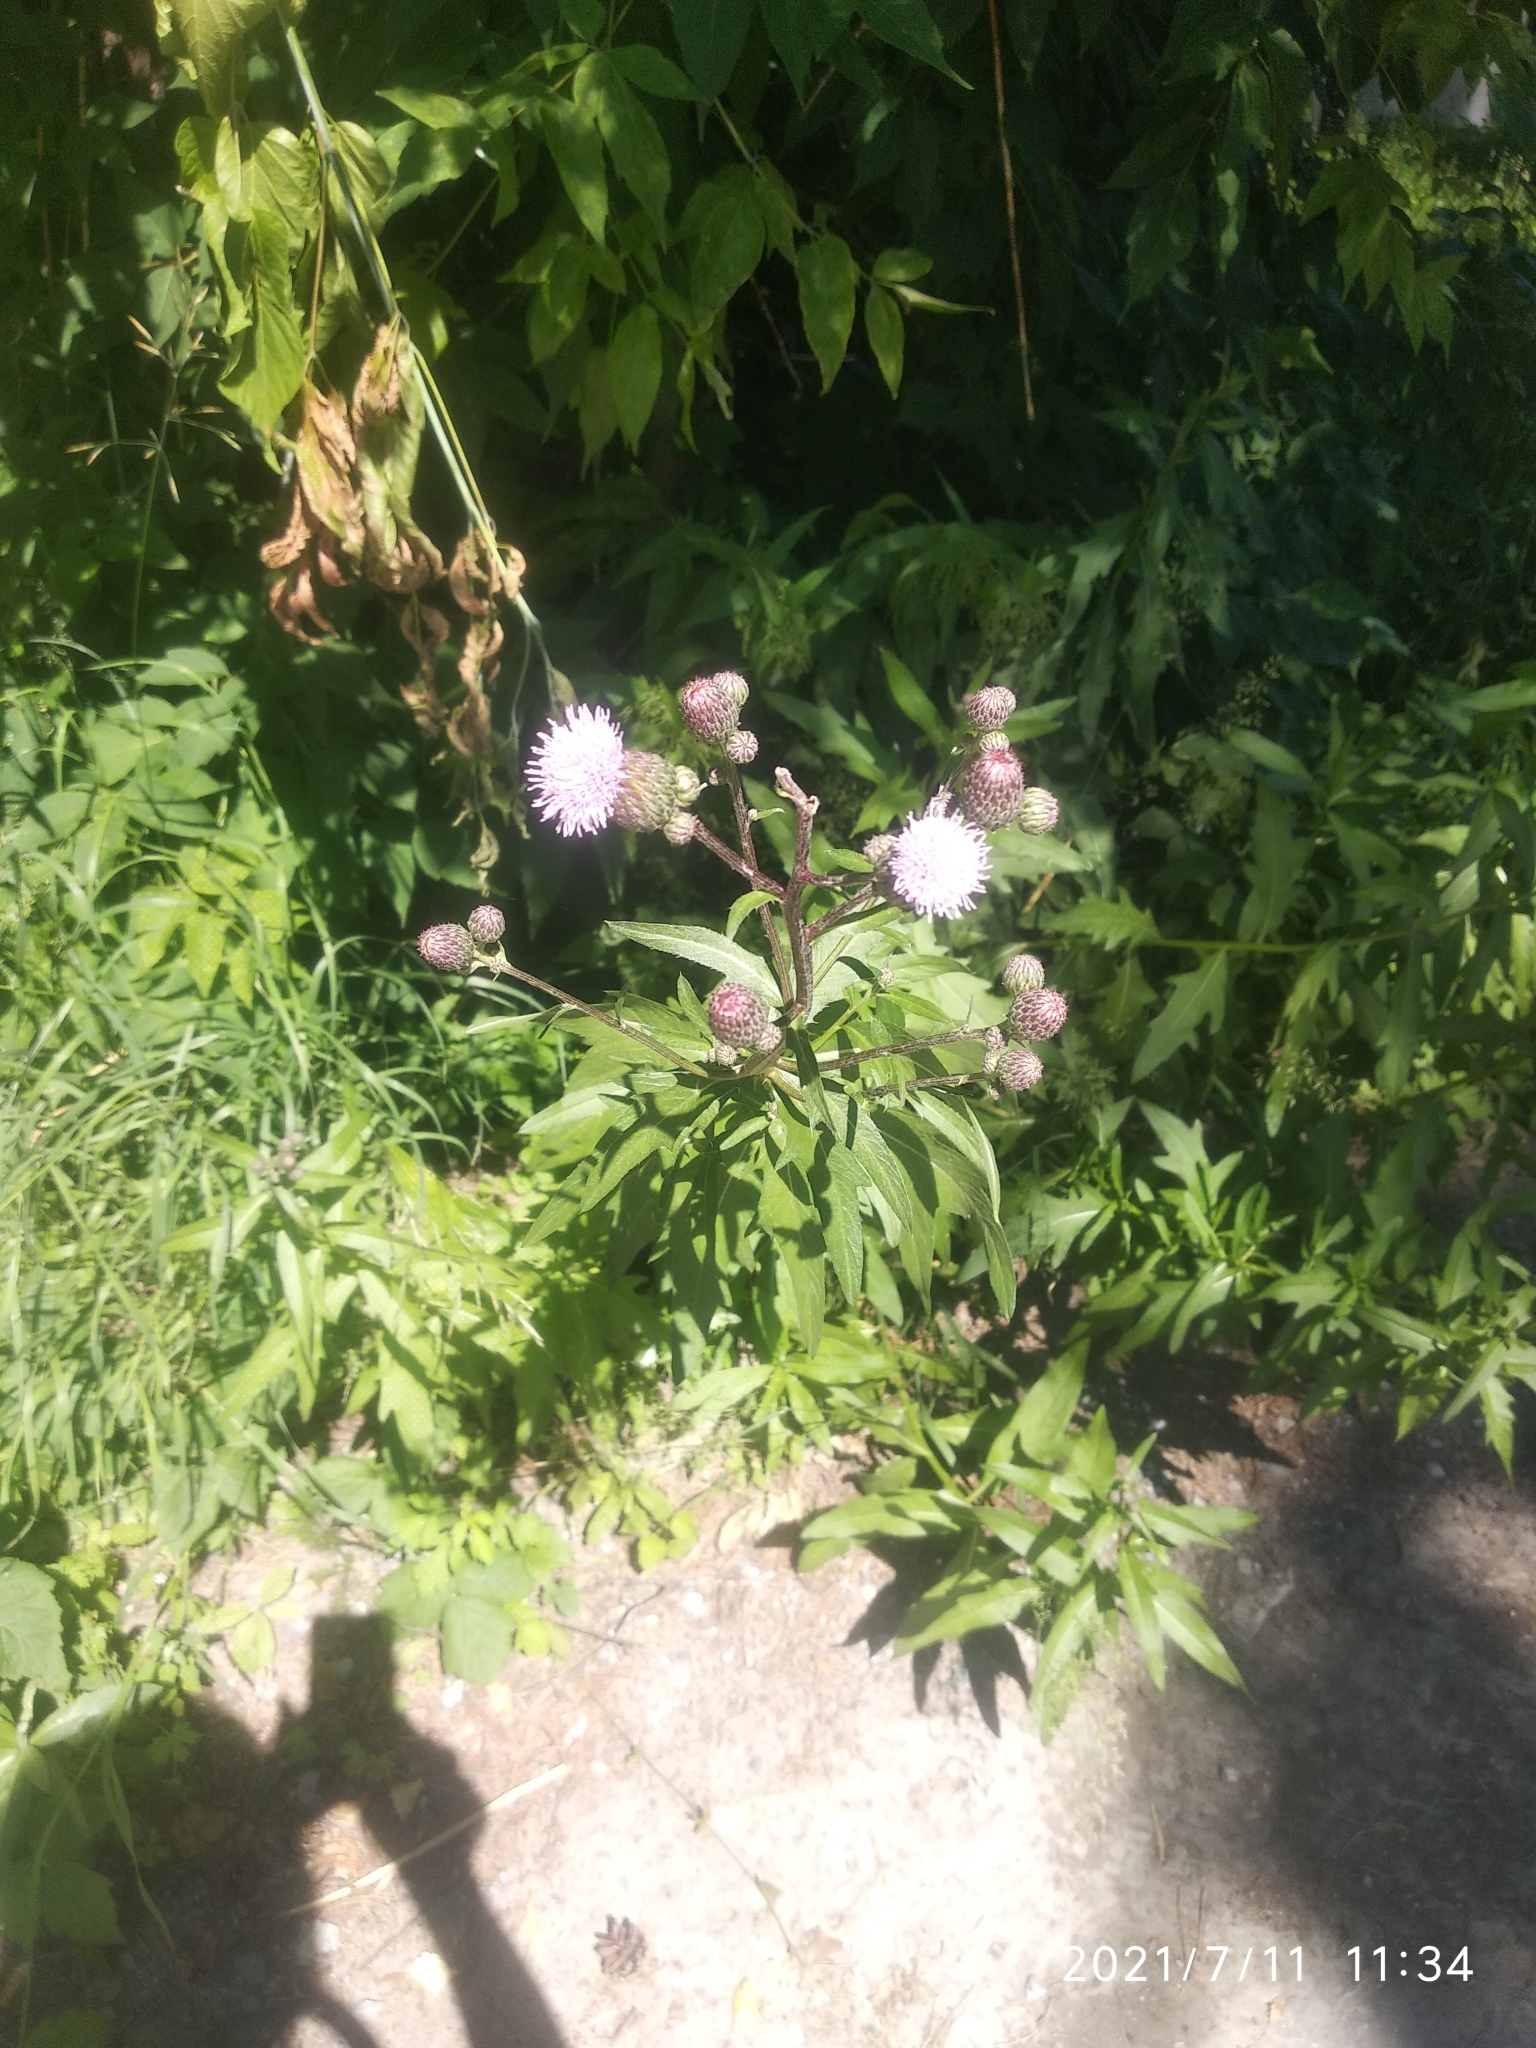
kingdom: Plantae
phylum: Tracheophyta
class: Magnoliopsida
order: Asterales
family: Asteraceae
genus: Cirsium
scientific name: Cirsium arvense
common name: Creeping thistle
